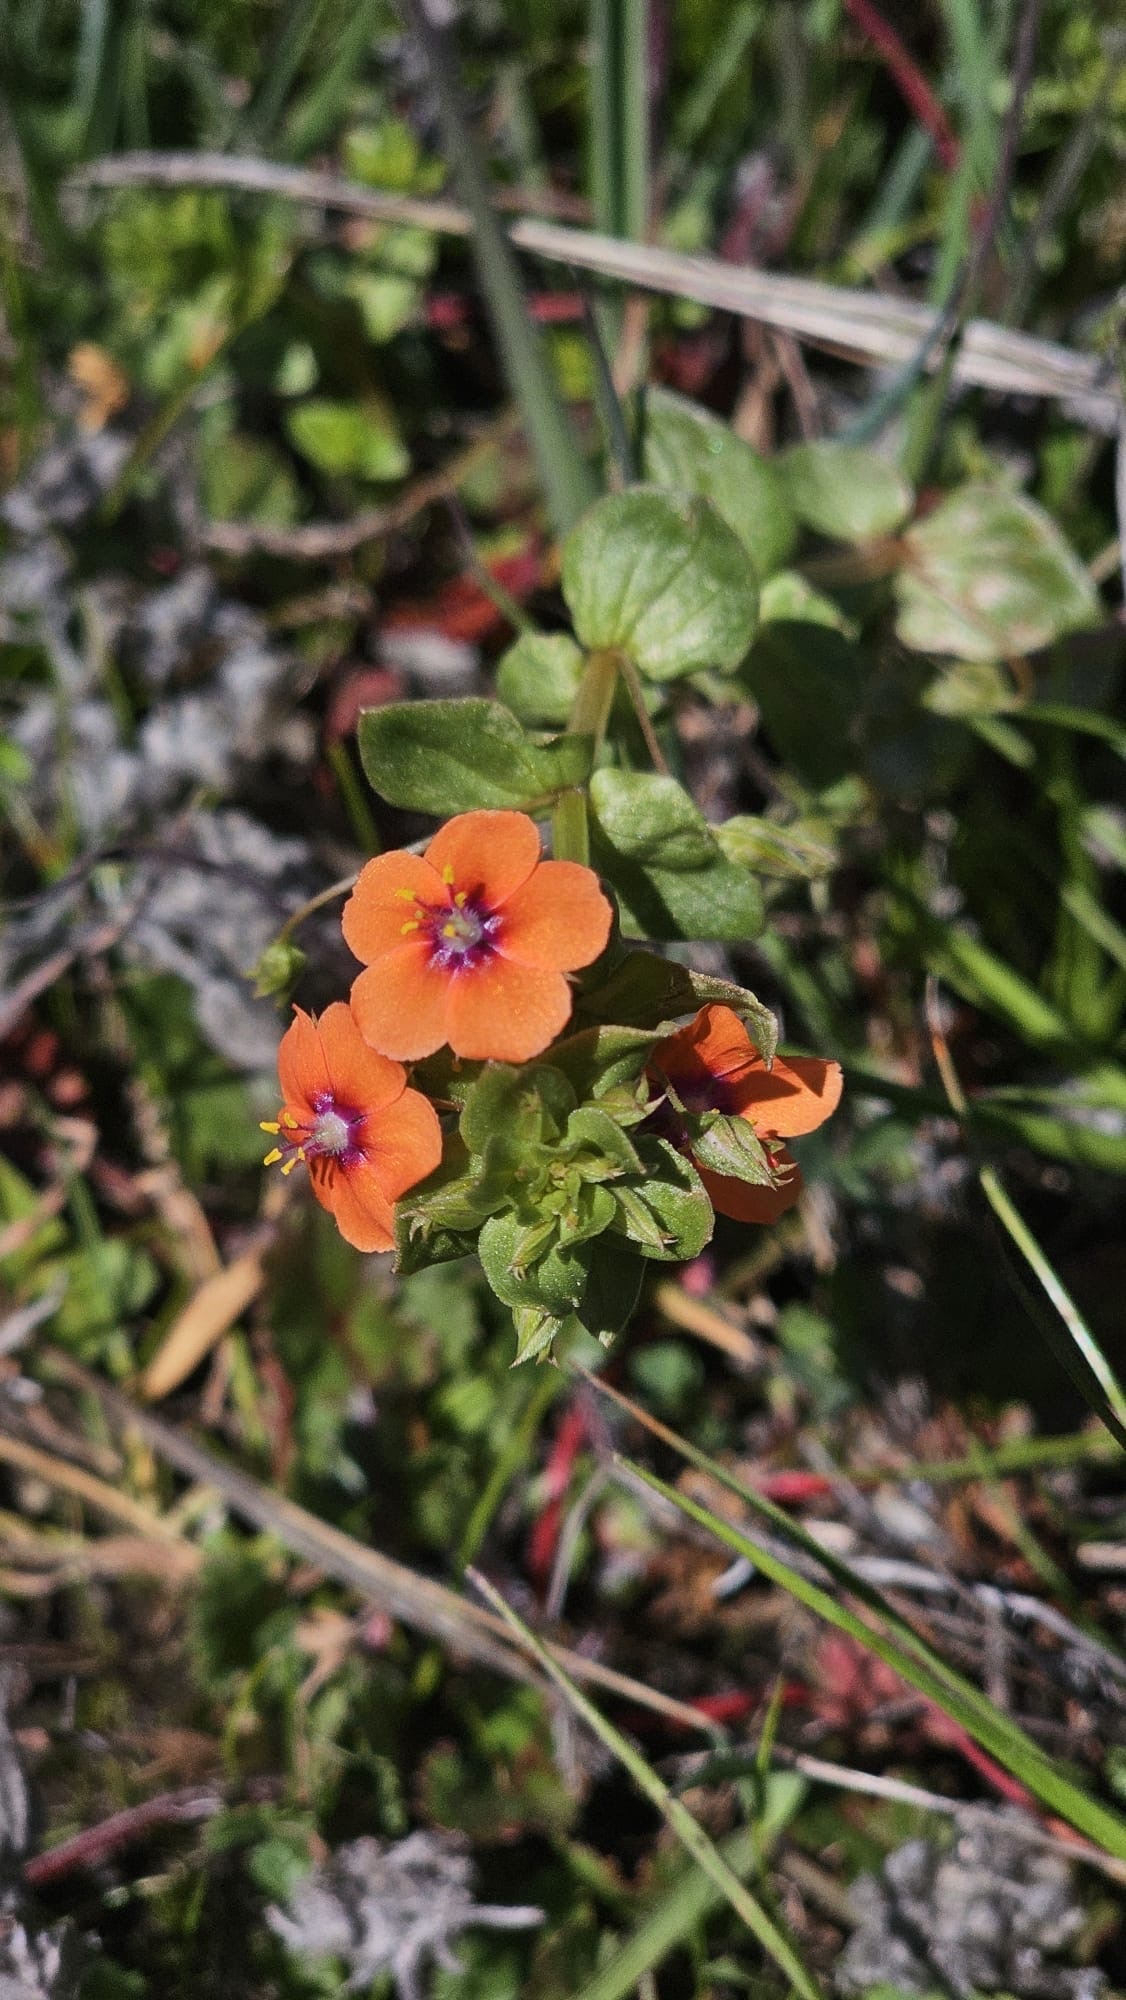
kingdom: Plantae
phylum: Tracheophyta
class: Magnoliopsida
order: Ericales
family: Primulaceae
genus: Lysimachia
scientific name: Lysimachia arvensis
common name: Scarlet pimpernel
